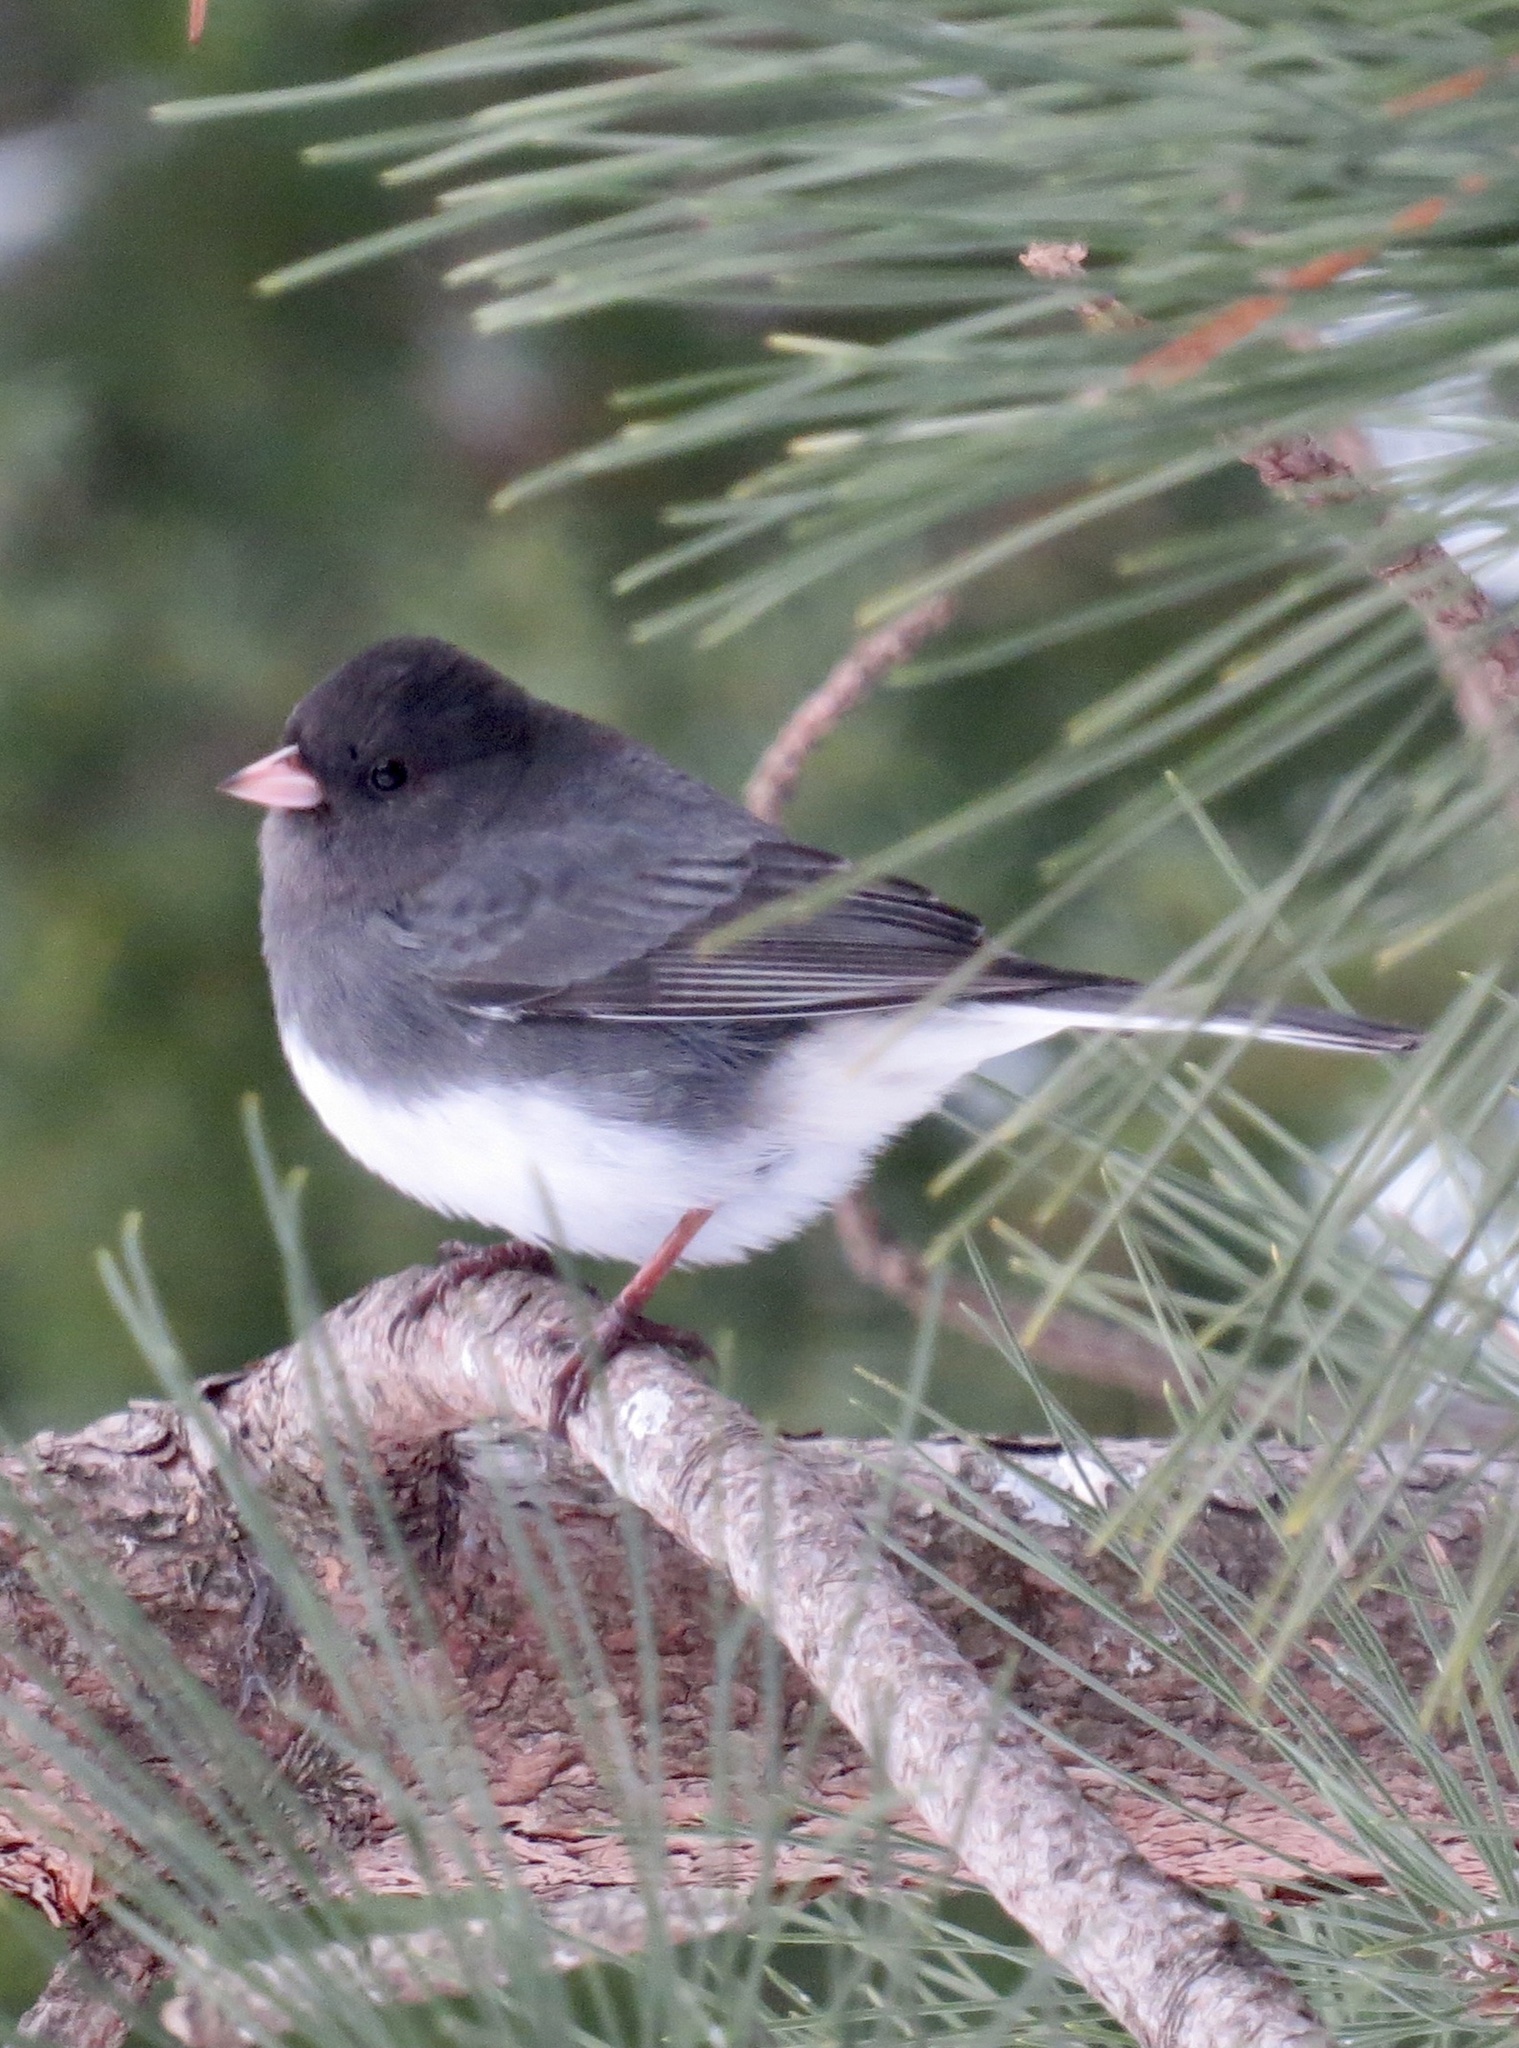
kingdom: Animalia
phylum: Chordata
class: Aves
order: Passeriformes
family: Passerellidae
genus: Junco
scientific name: Junco hyemalis
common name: Dark-eyed junco
